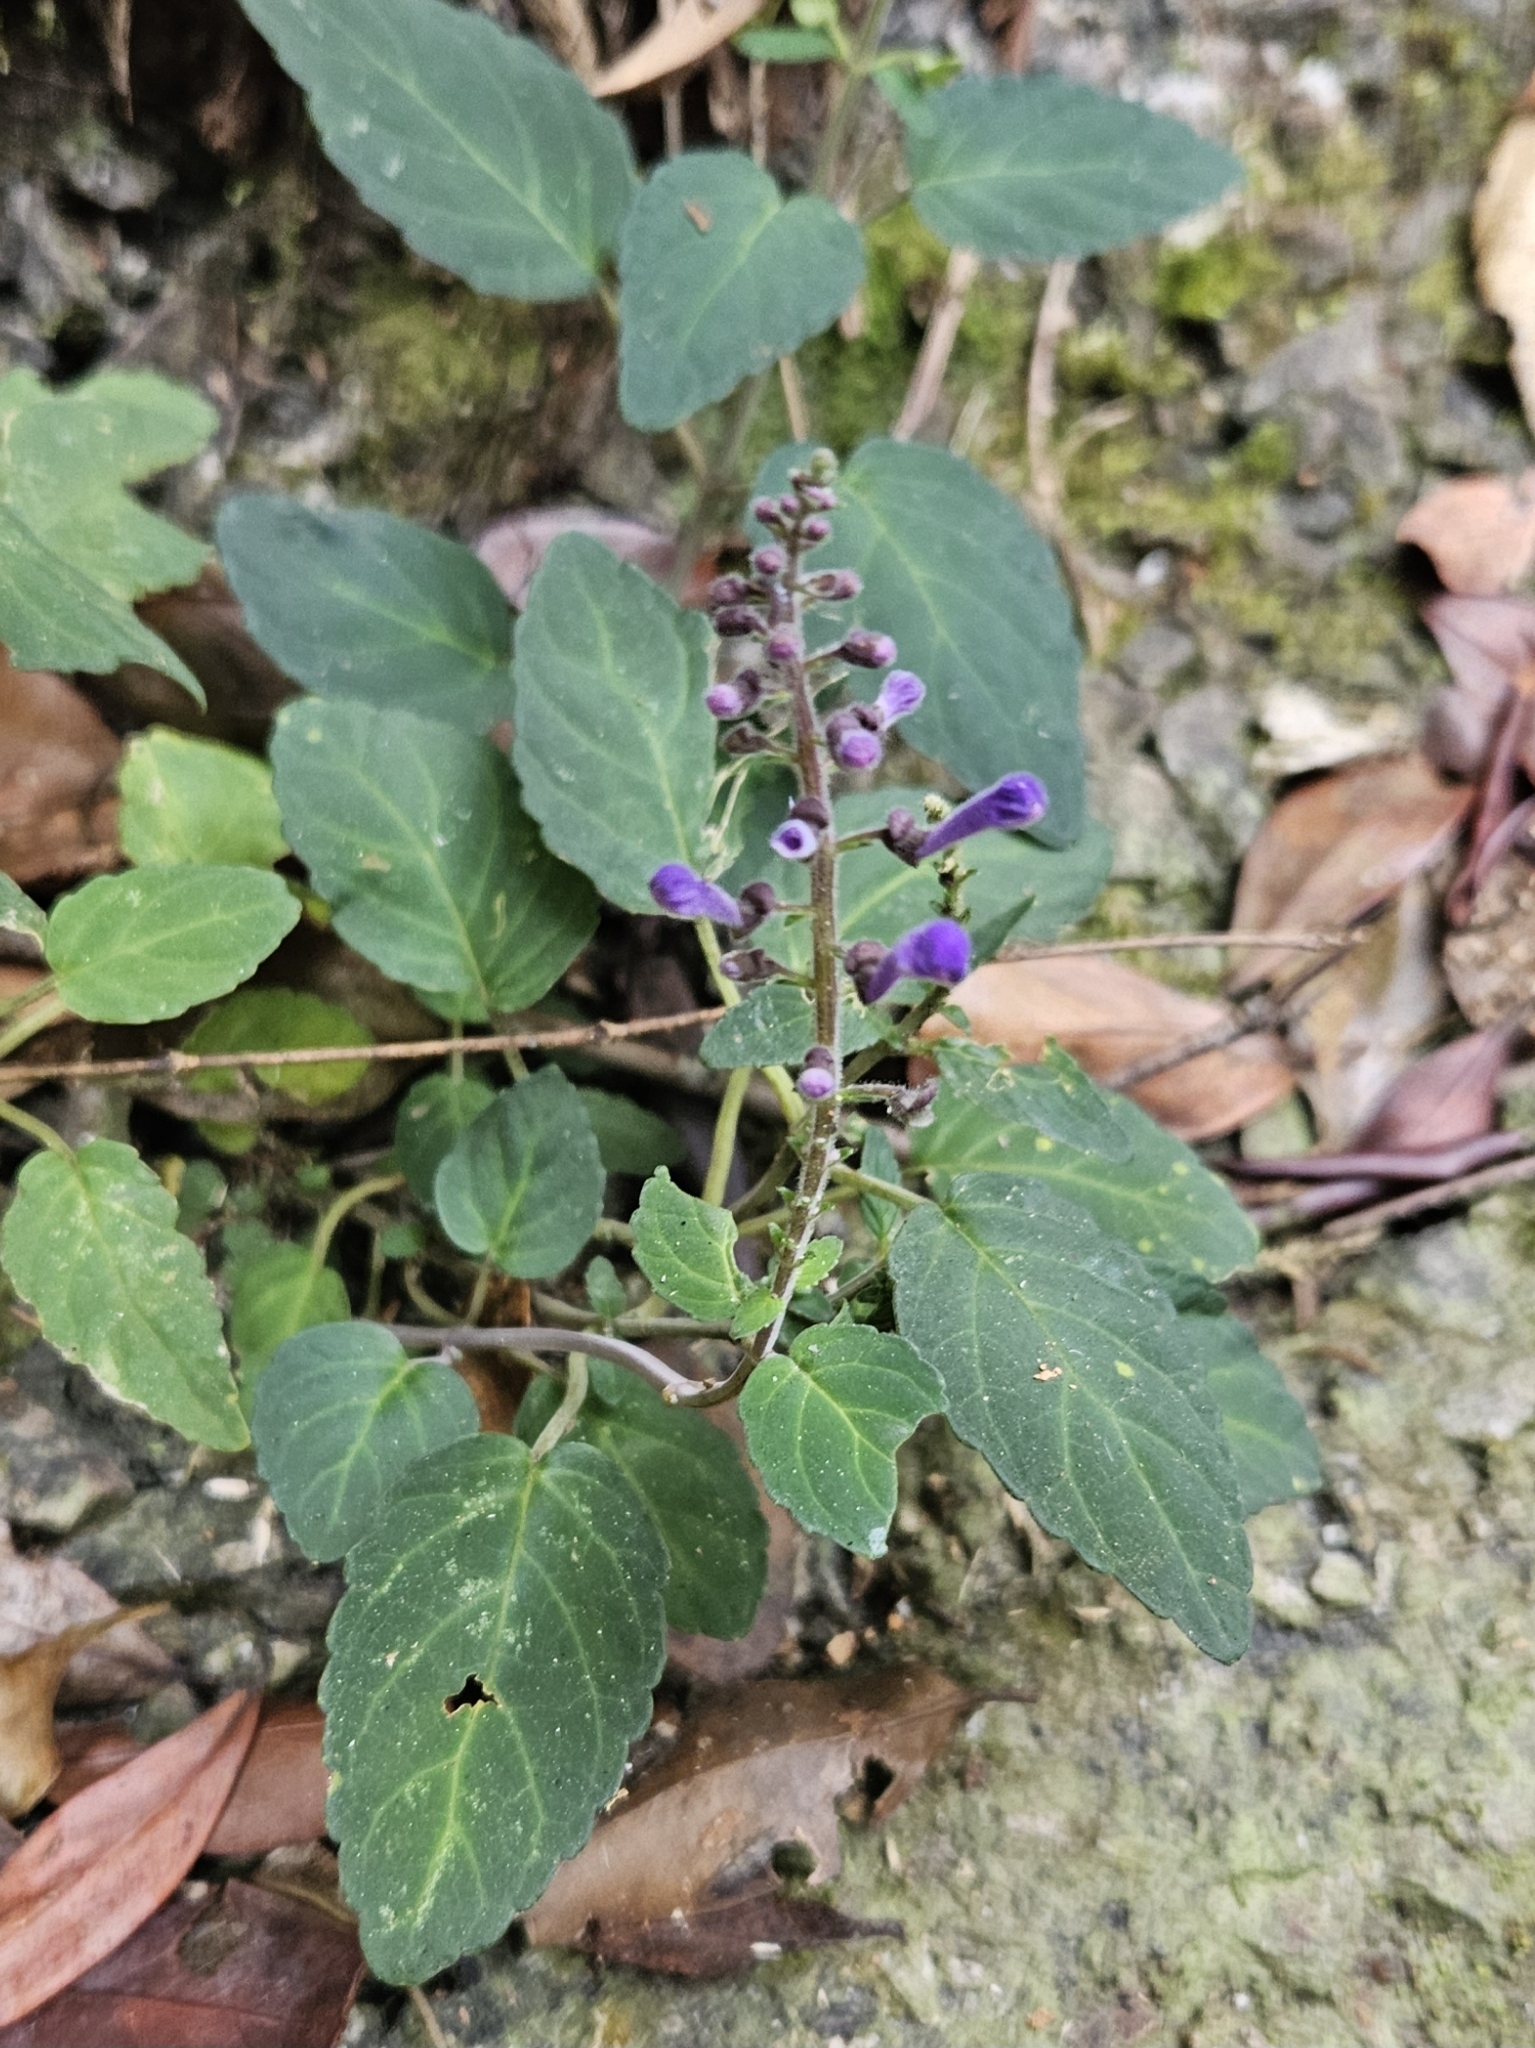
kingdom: Plantae
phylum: Tracheophyta
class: Magnoliopsida
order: Lamiales
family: Lamiaceae
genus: Scutellaria
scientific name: Scutellaria discolor
